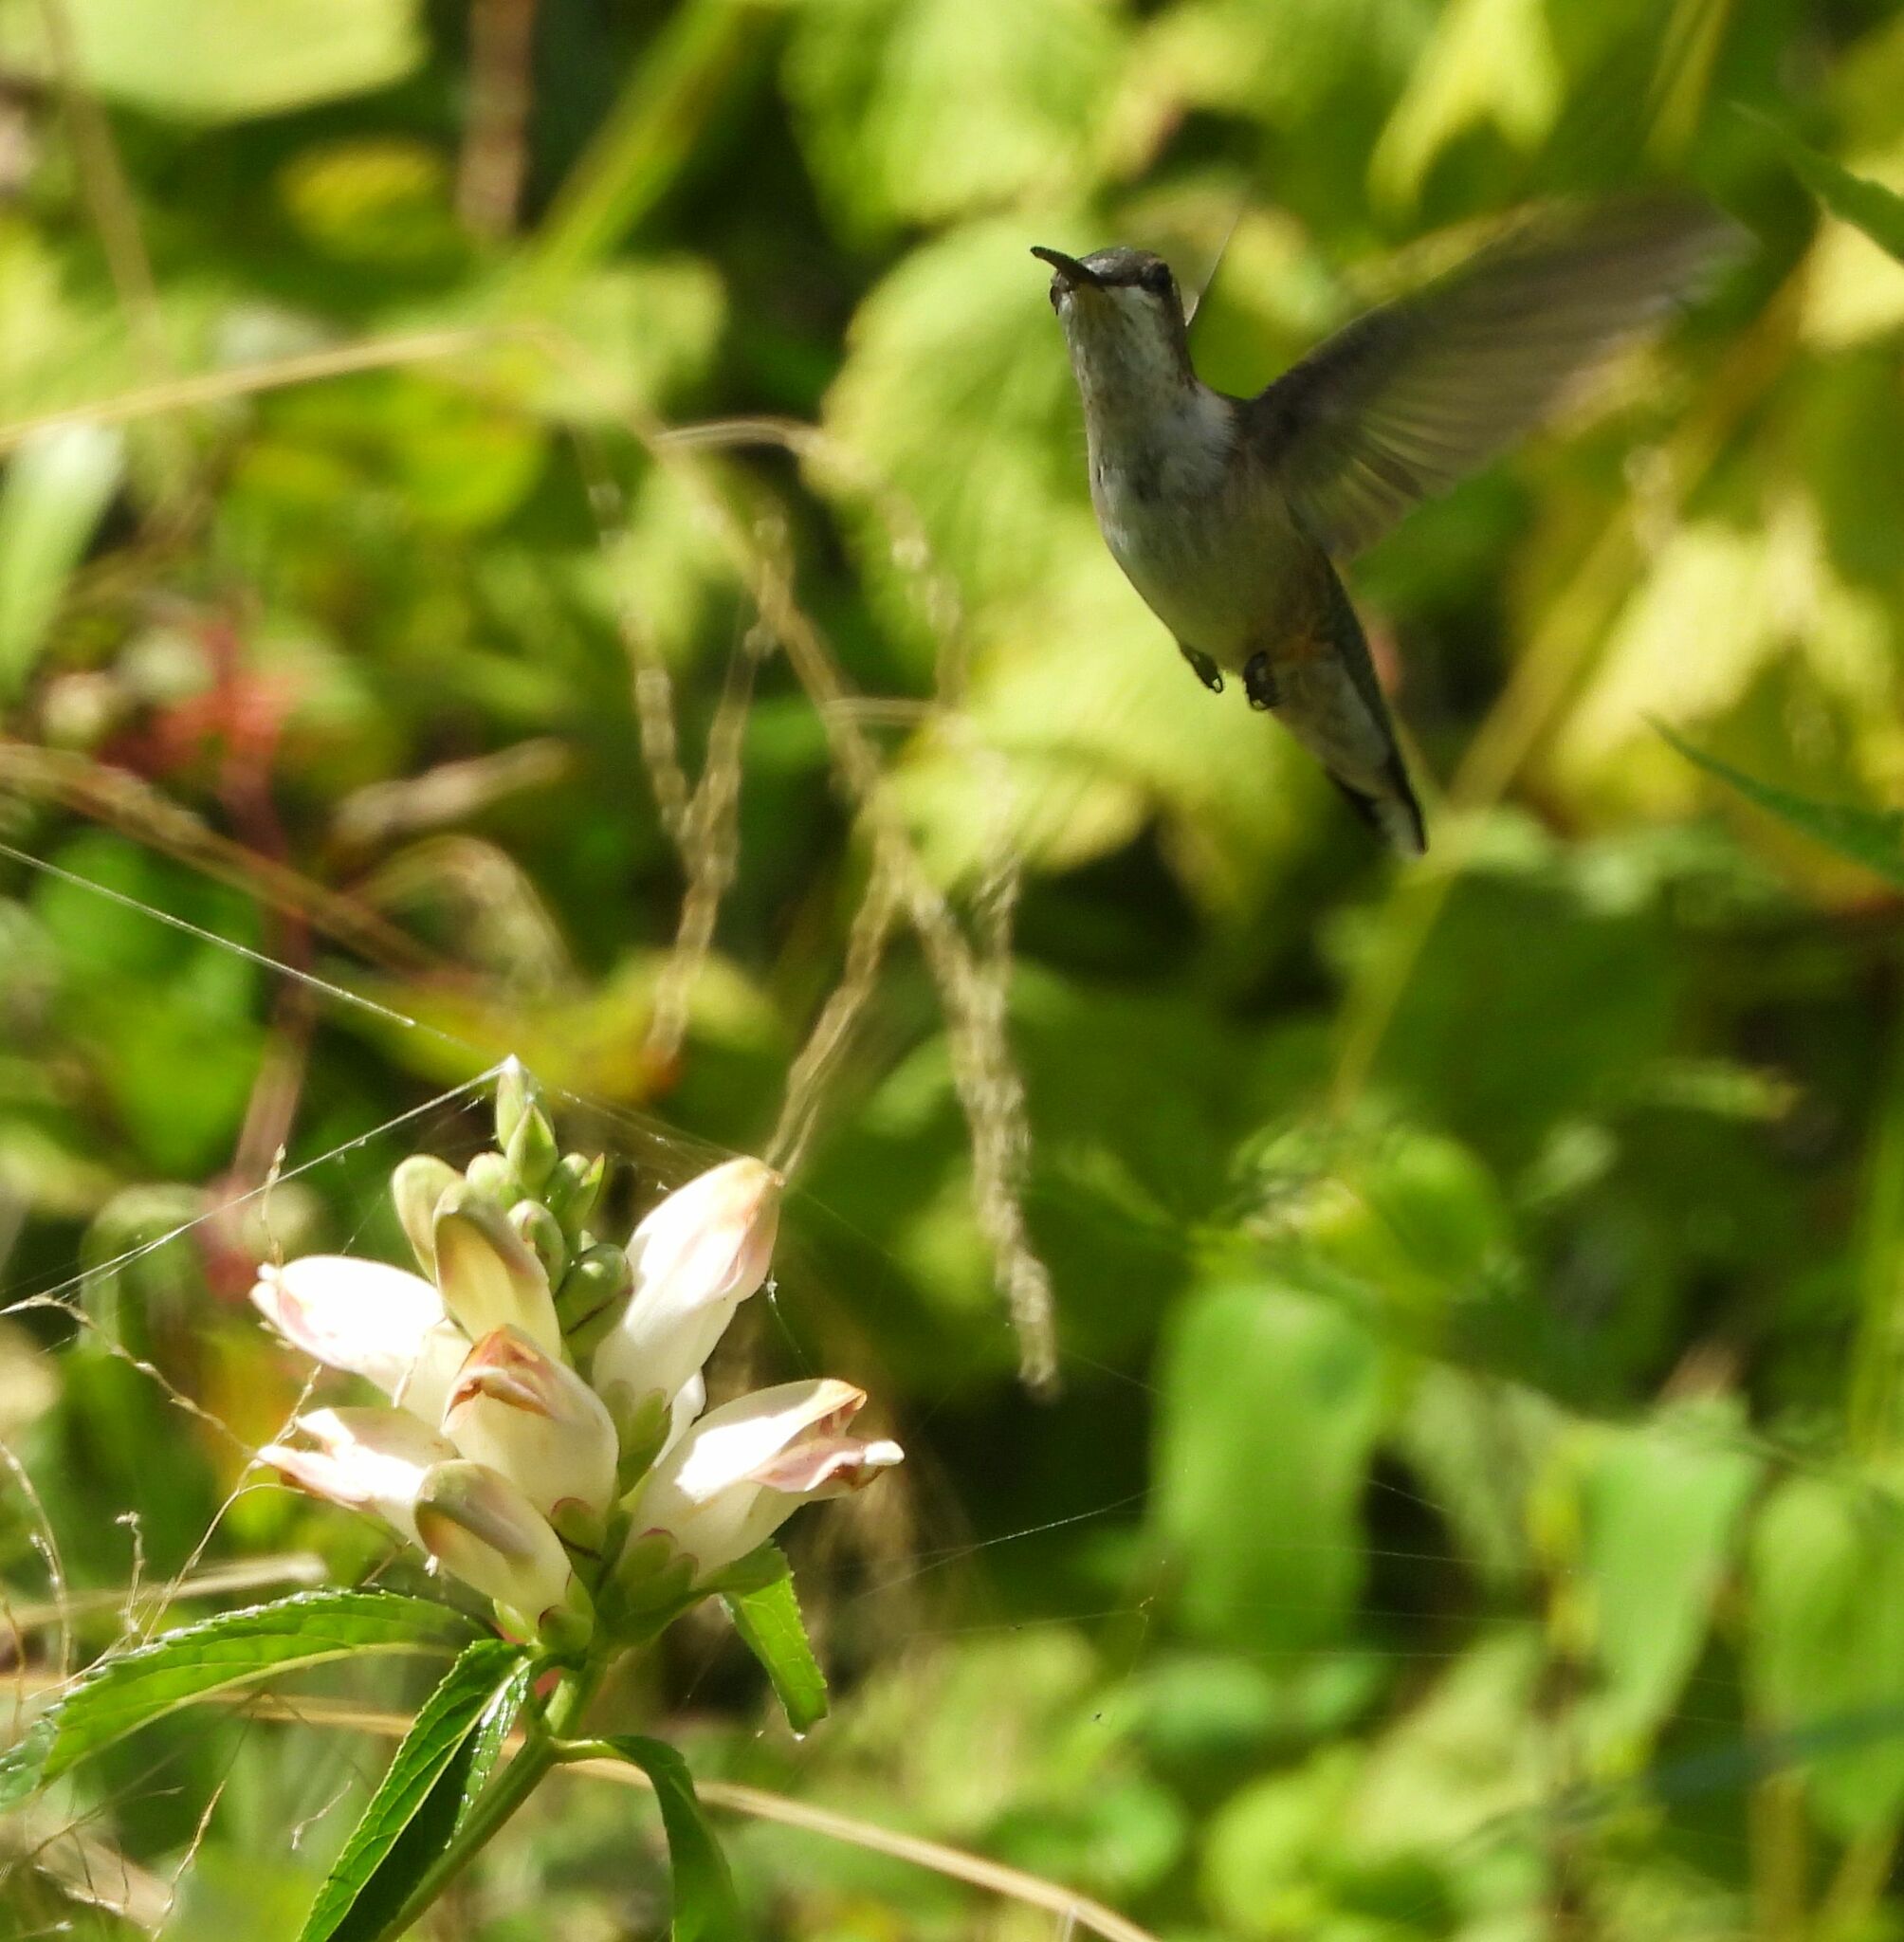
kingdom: Animalia
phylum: Chordata
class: Aves
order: Apodiformes
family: Trochilidae
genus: Archilochus
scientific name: Archilochus colubris
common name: Ruby-throated hummingbird
